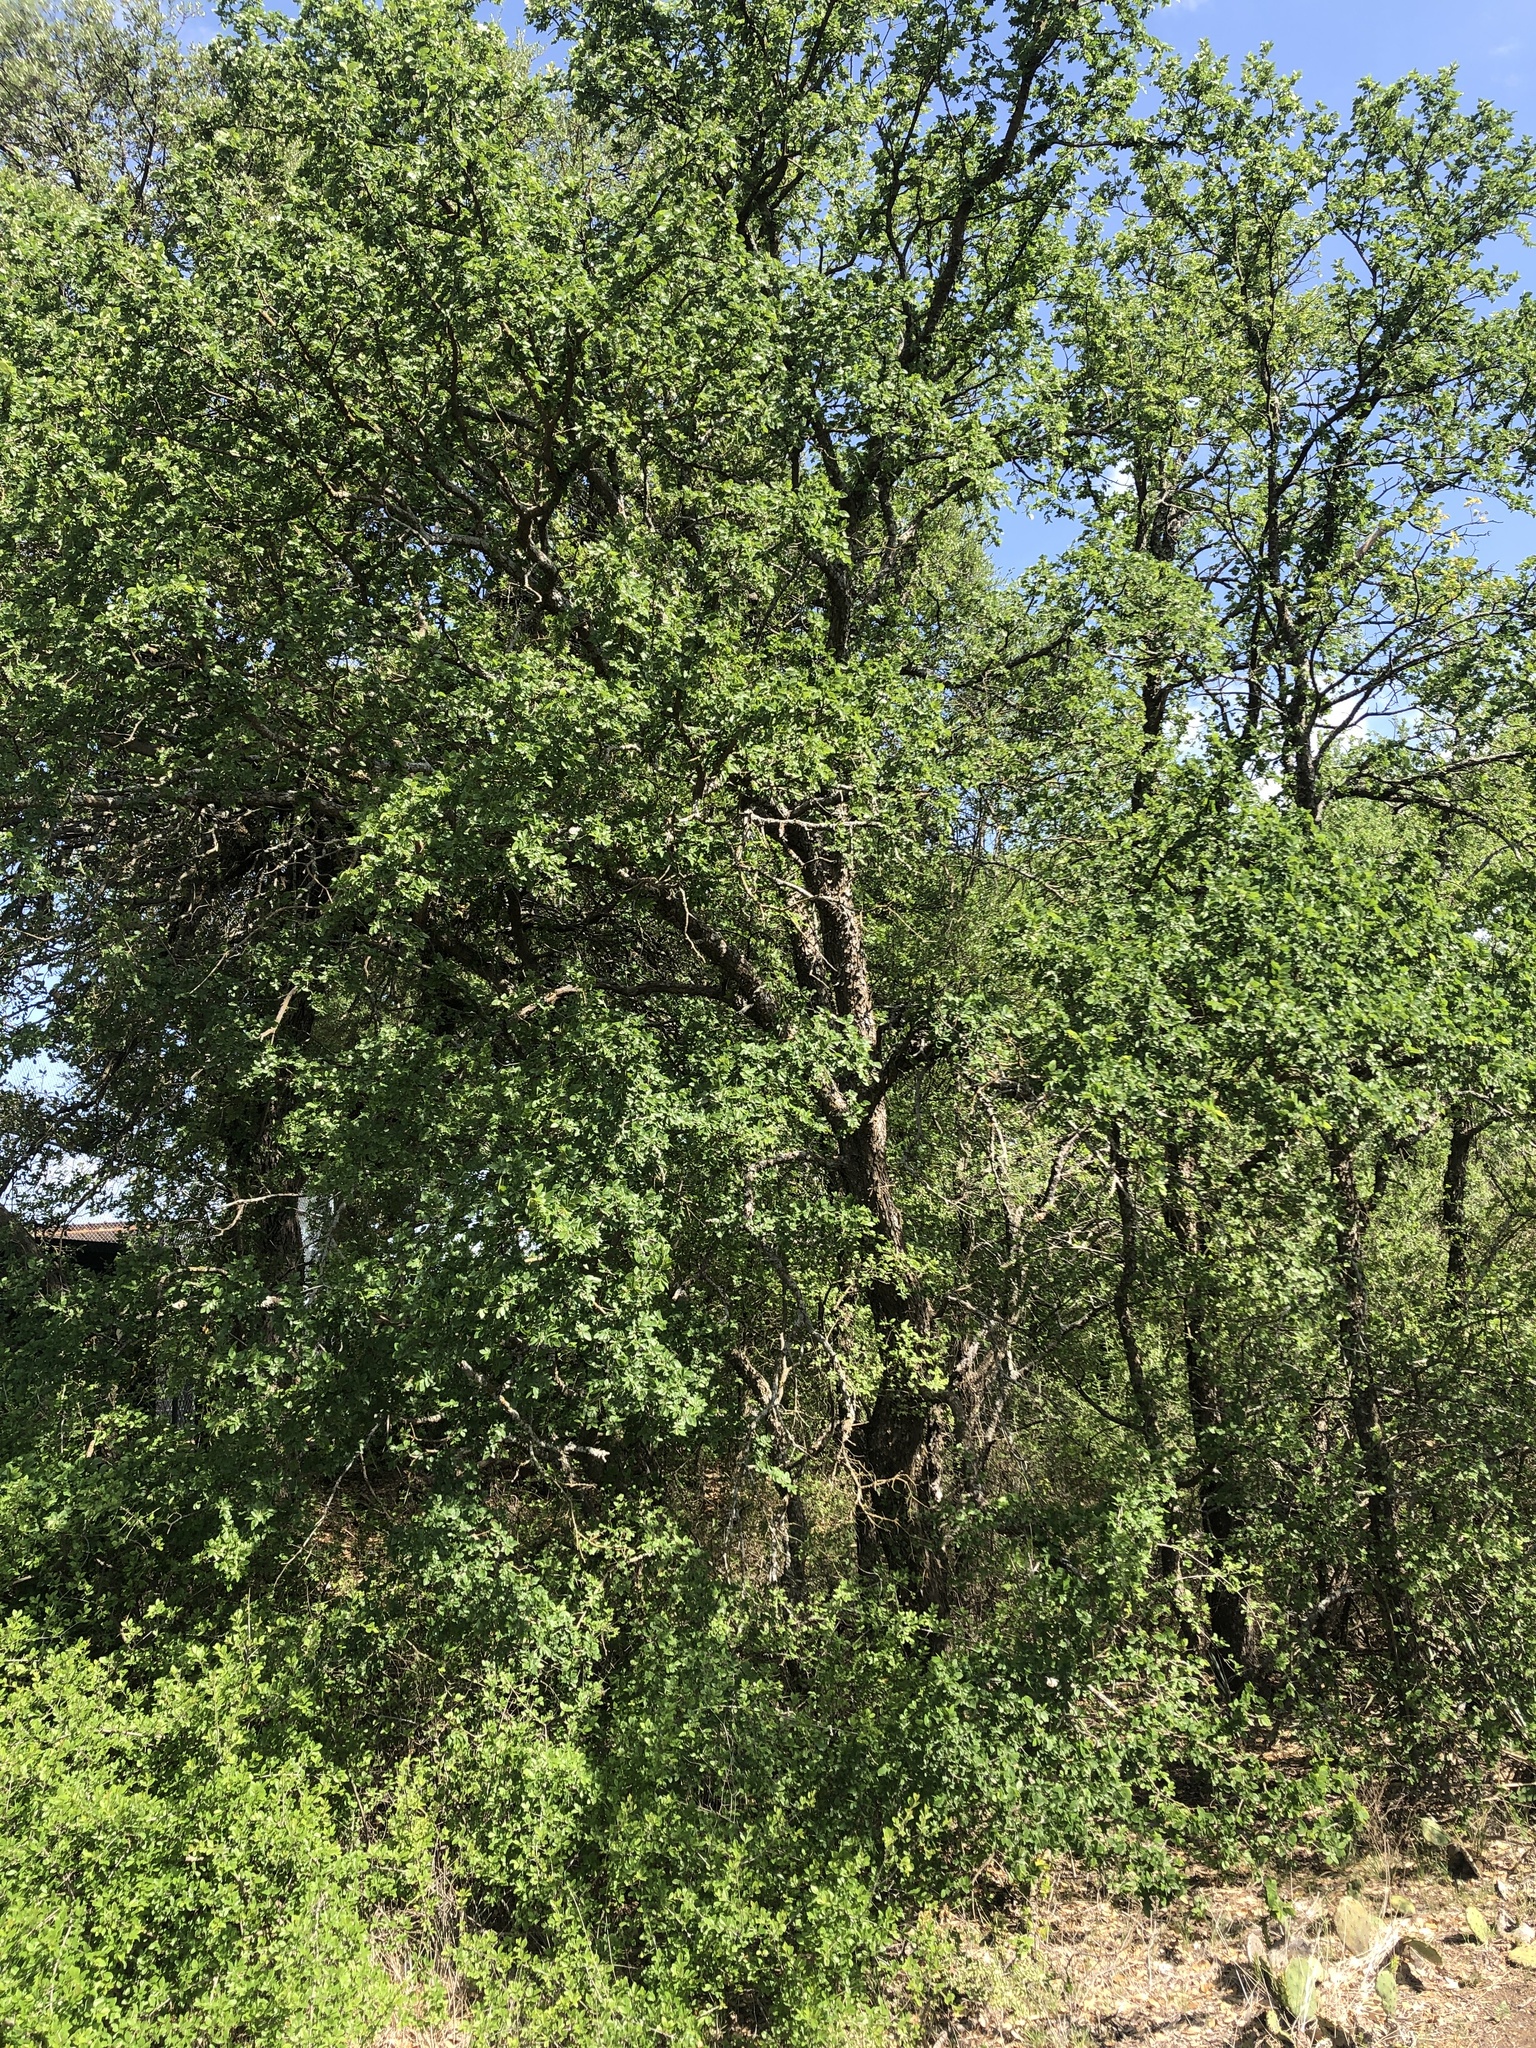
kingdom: Plantae
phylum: Tracheophyta
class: Magnoliopsida
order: Rosales
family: Ulmaceae
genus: Ulmus
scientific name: Ulmus crassifolia
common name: Basket elm
